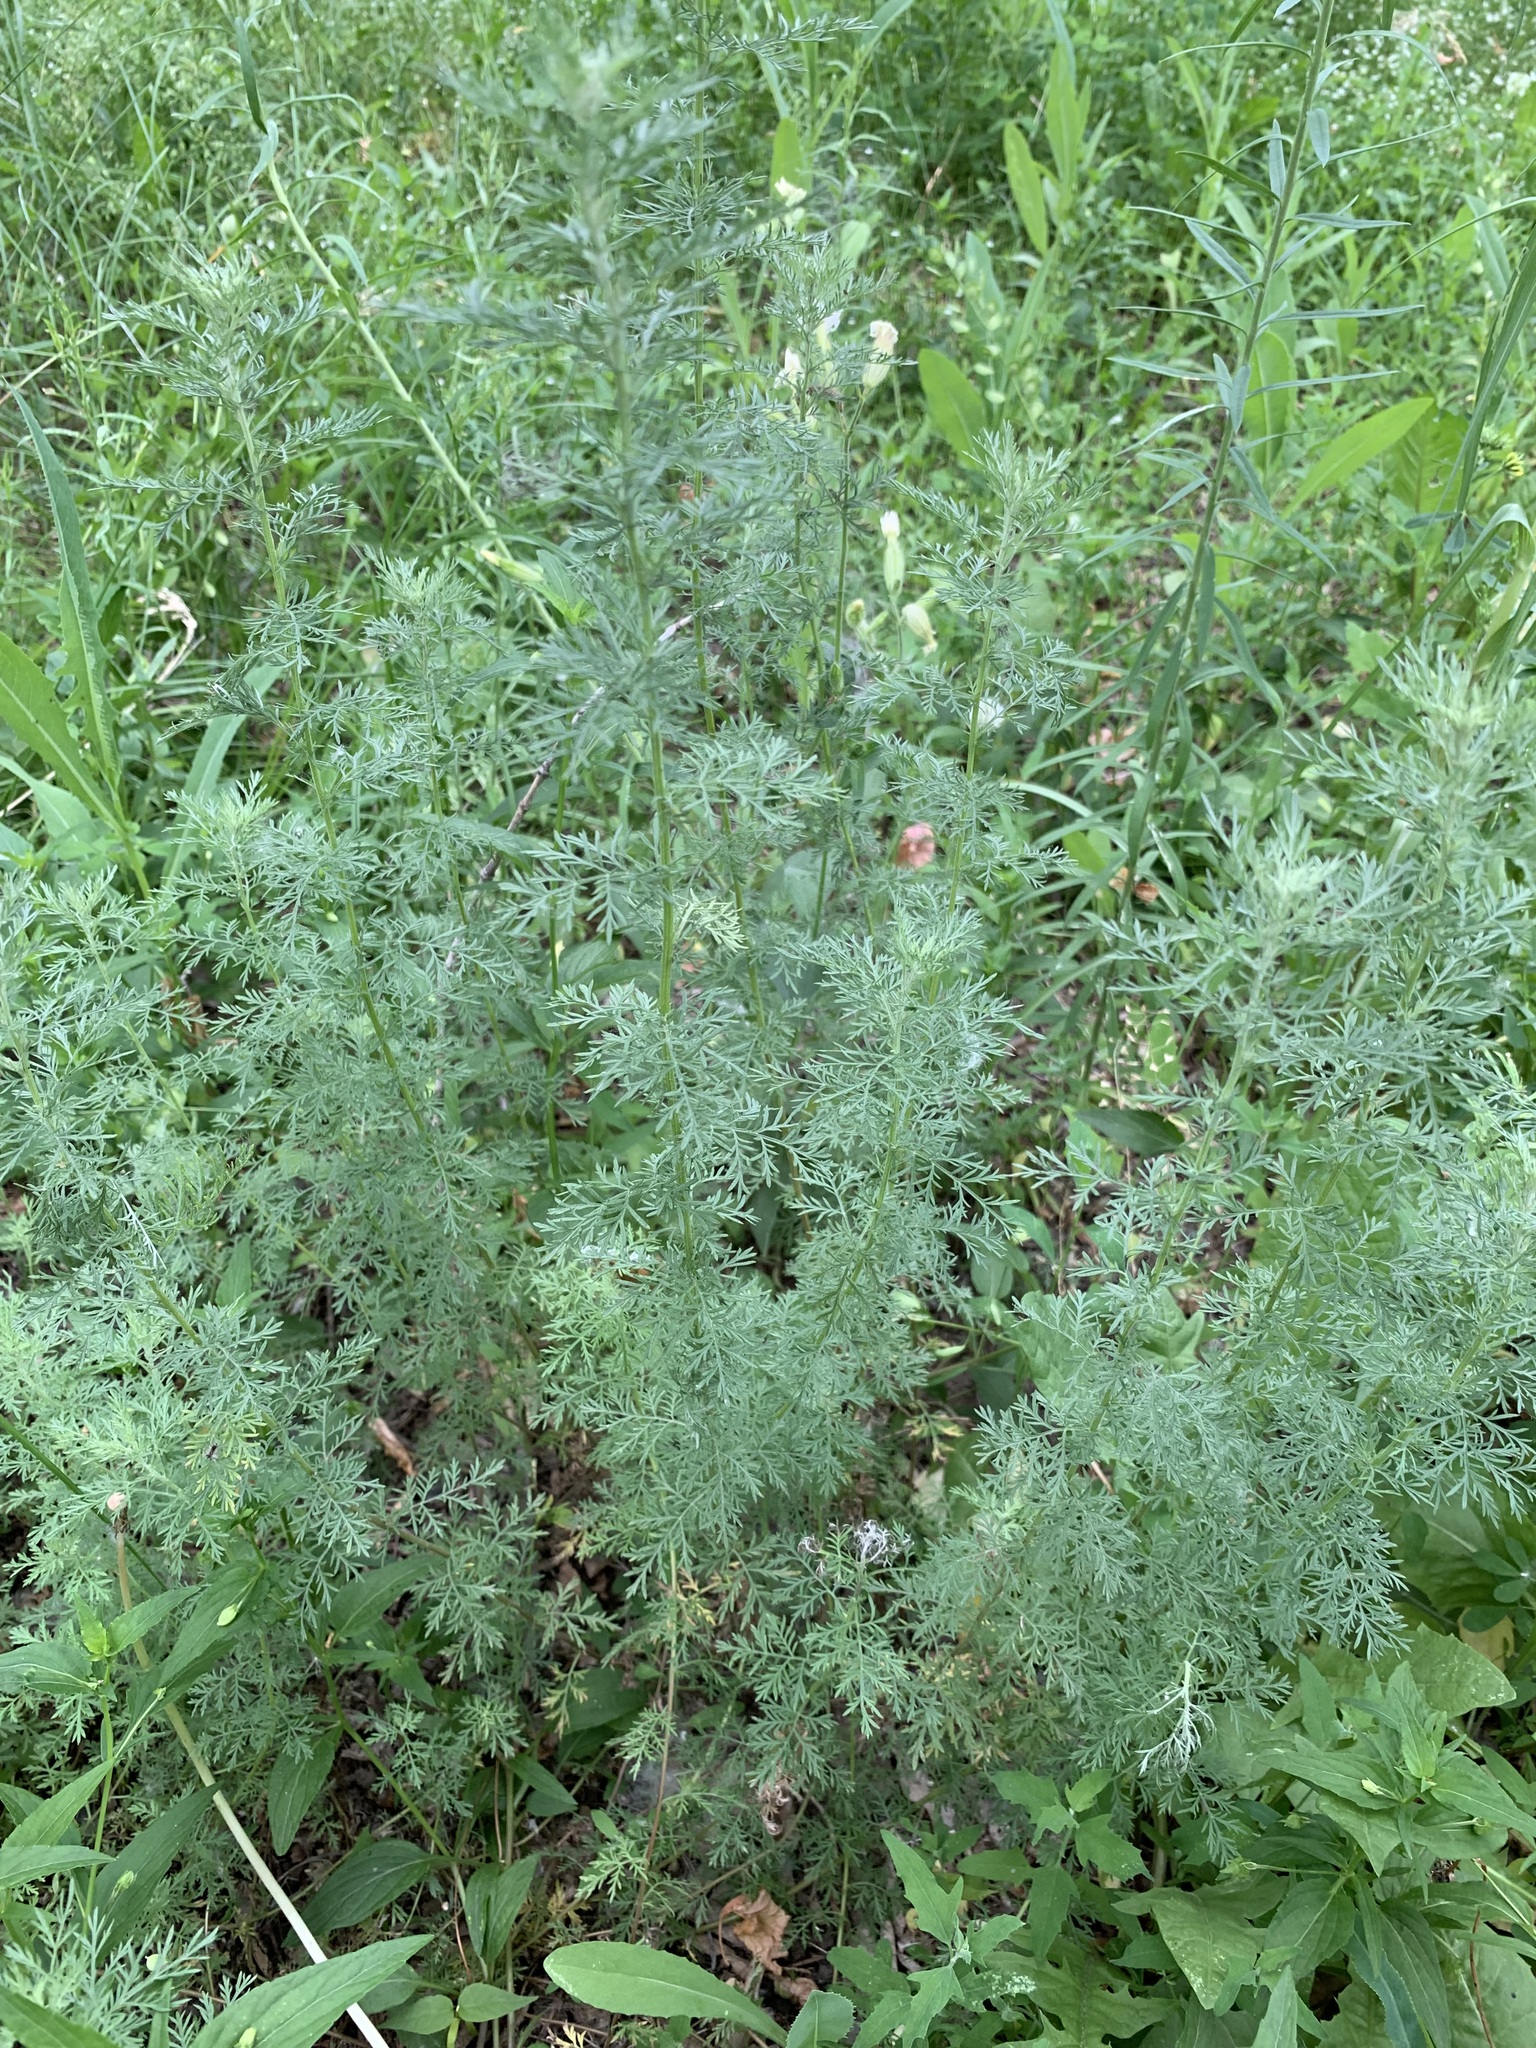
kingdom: Plantae
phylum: Tracheophyta
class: Magnoliopsida
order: Asterales
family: Asteraceae
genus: Artemisia
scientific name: Artemisia macrantha
